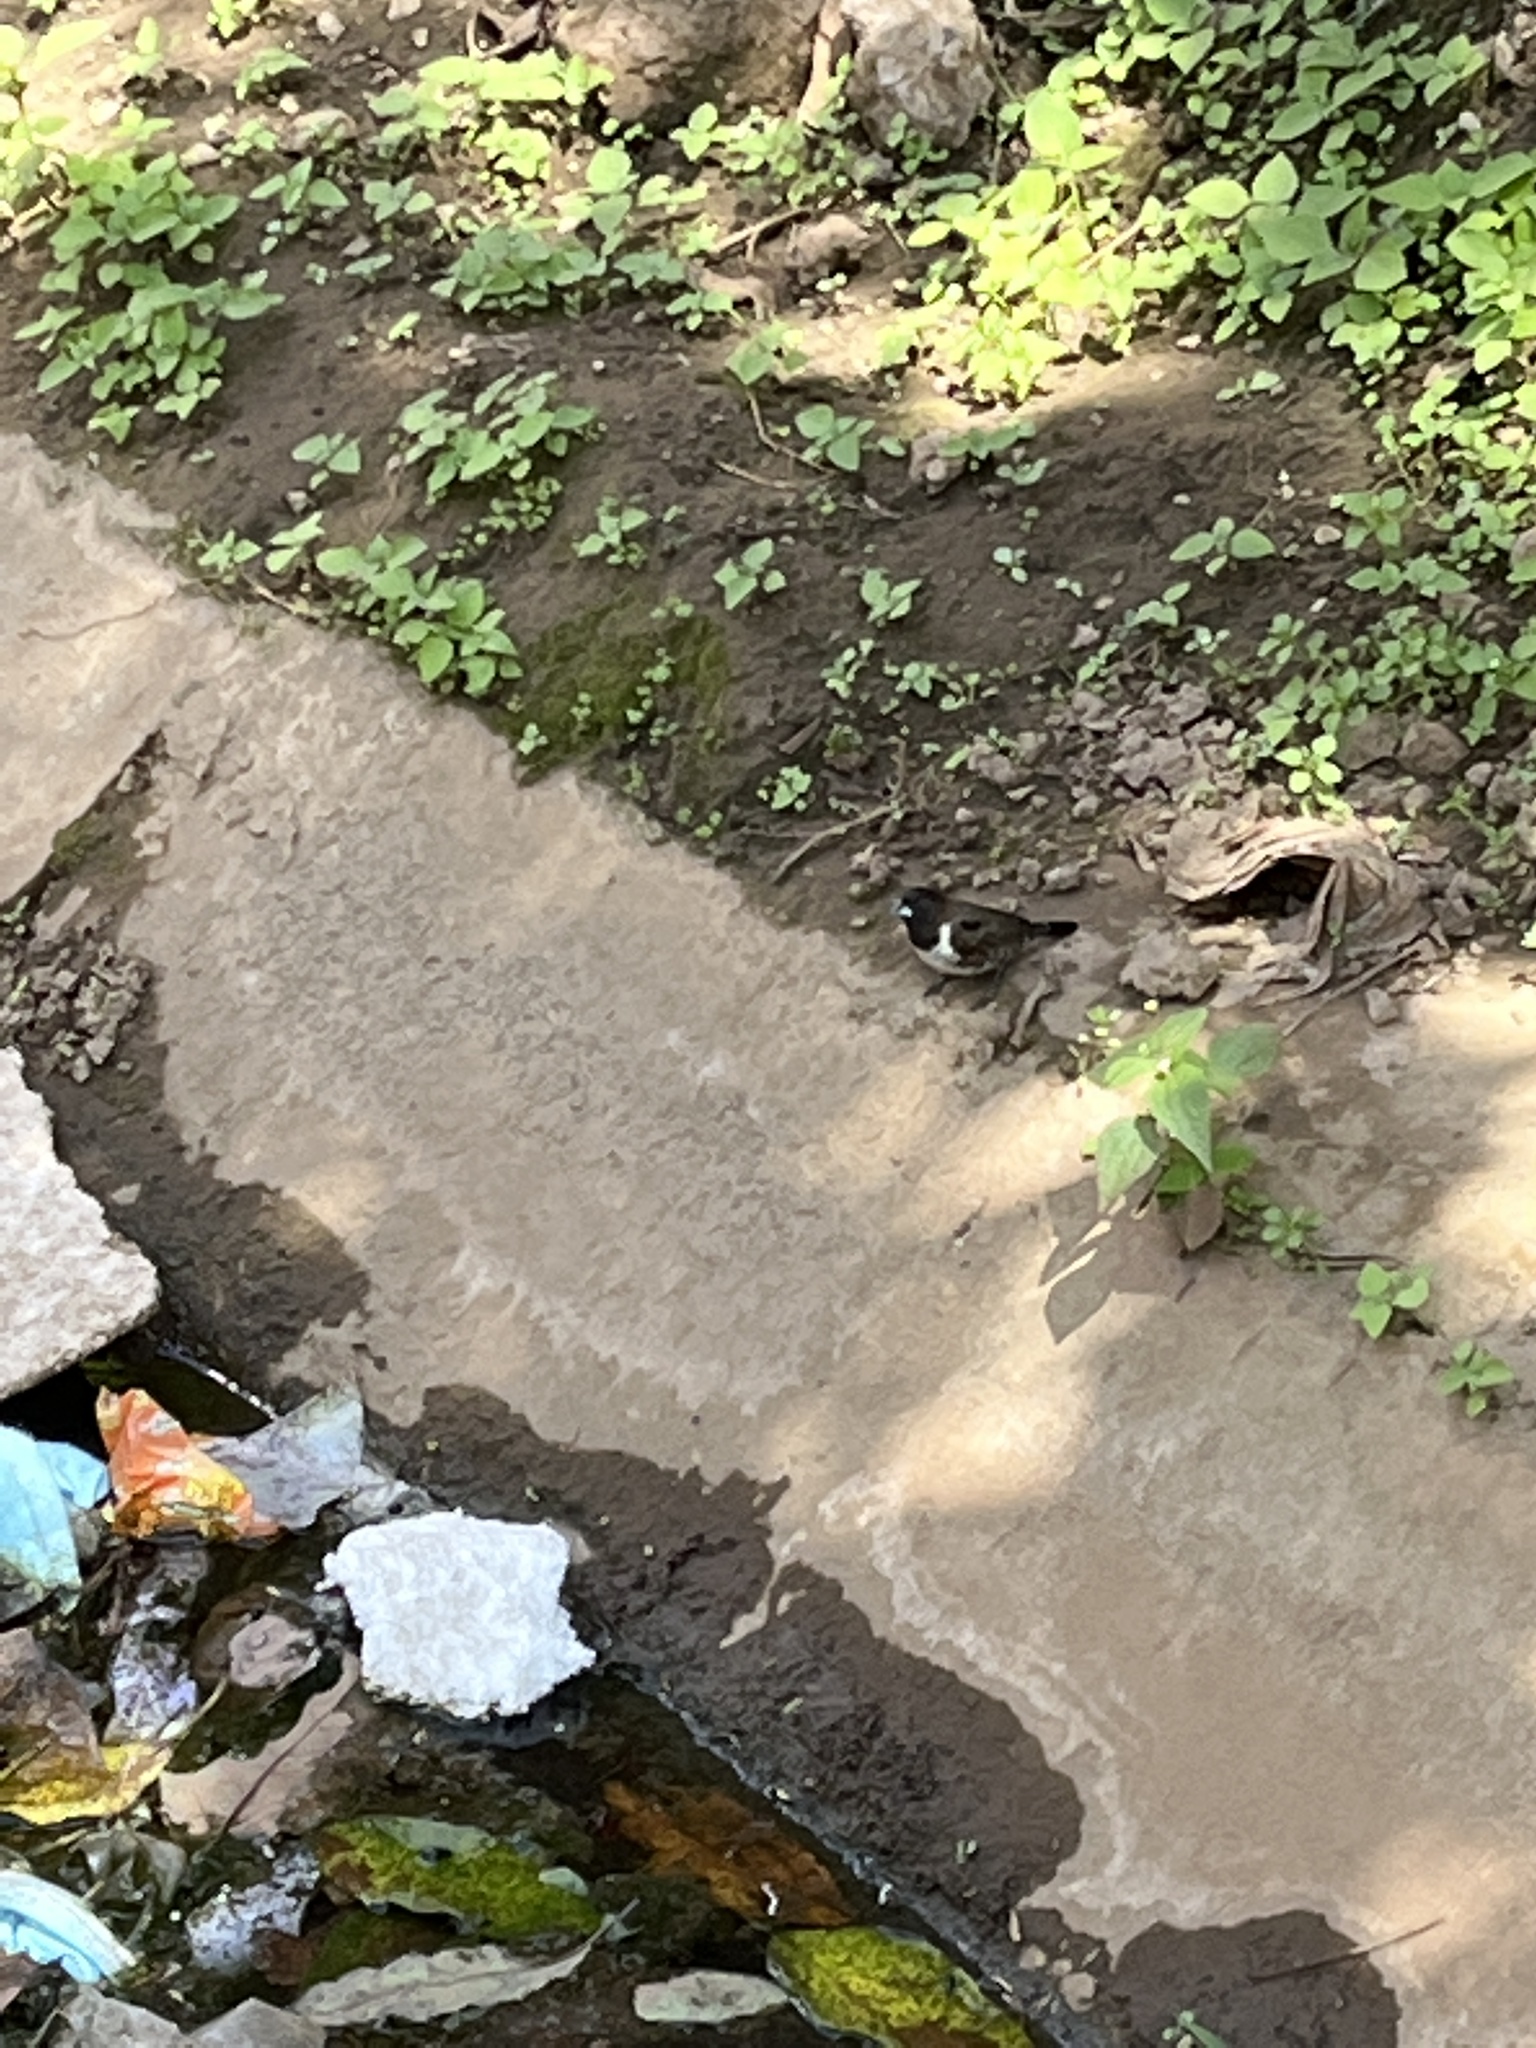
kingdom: Animalia
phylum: Chordata
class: Aves
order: Passeriformes
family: Estrildidae
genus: Lonchura
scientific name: Lonchura cucullata
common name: Bronze mannikin
